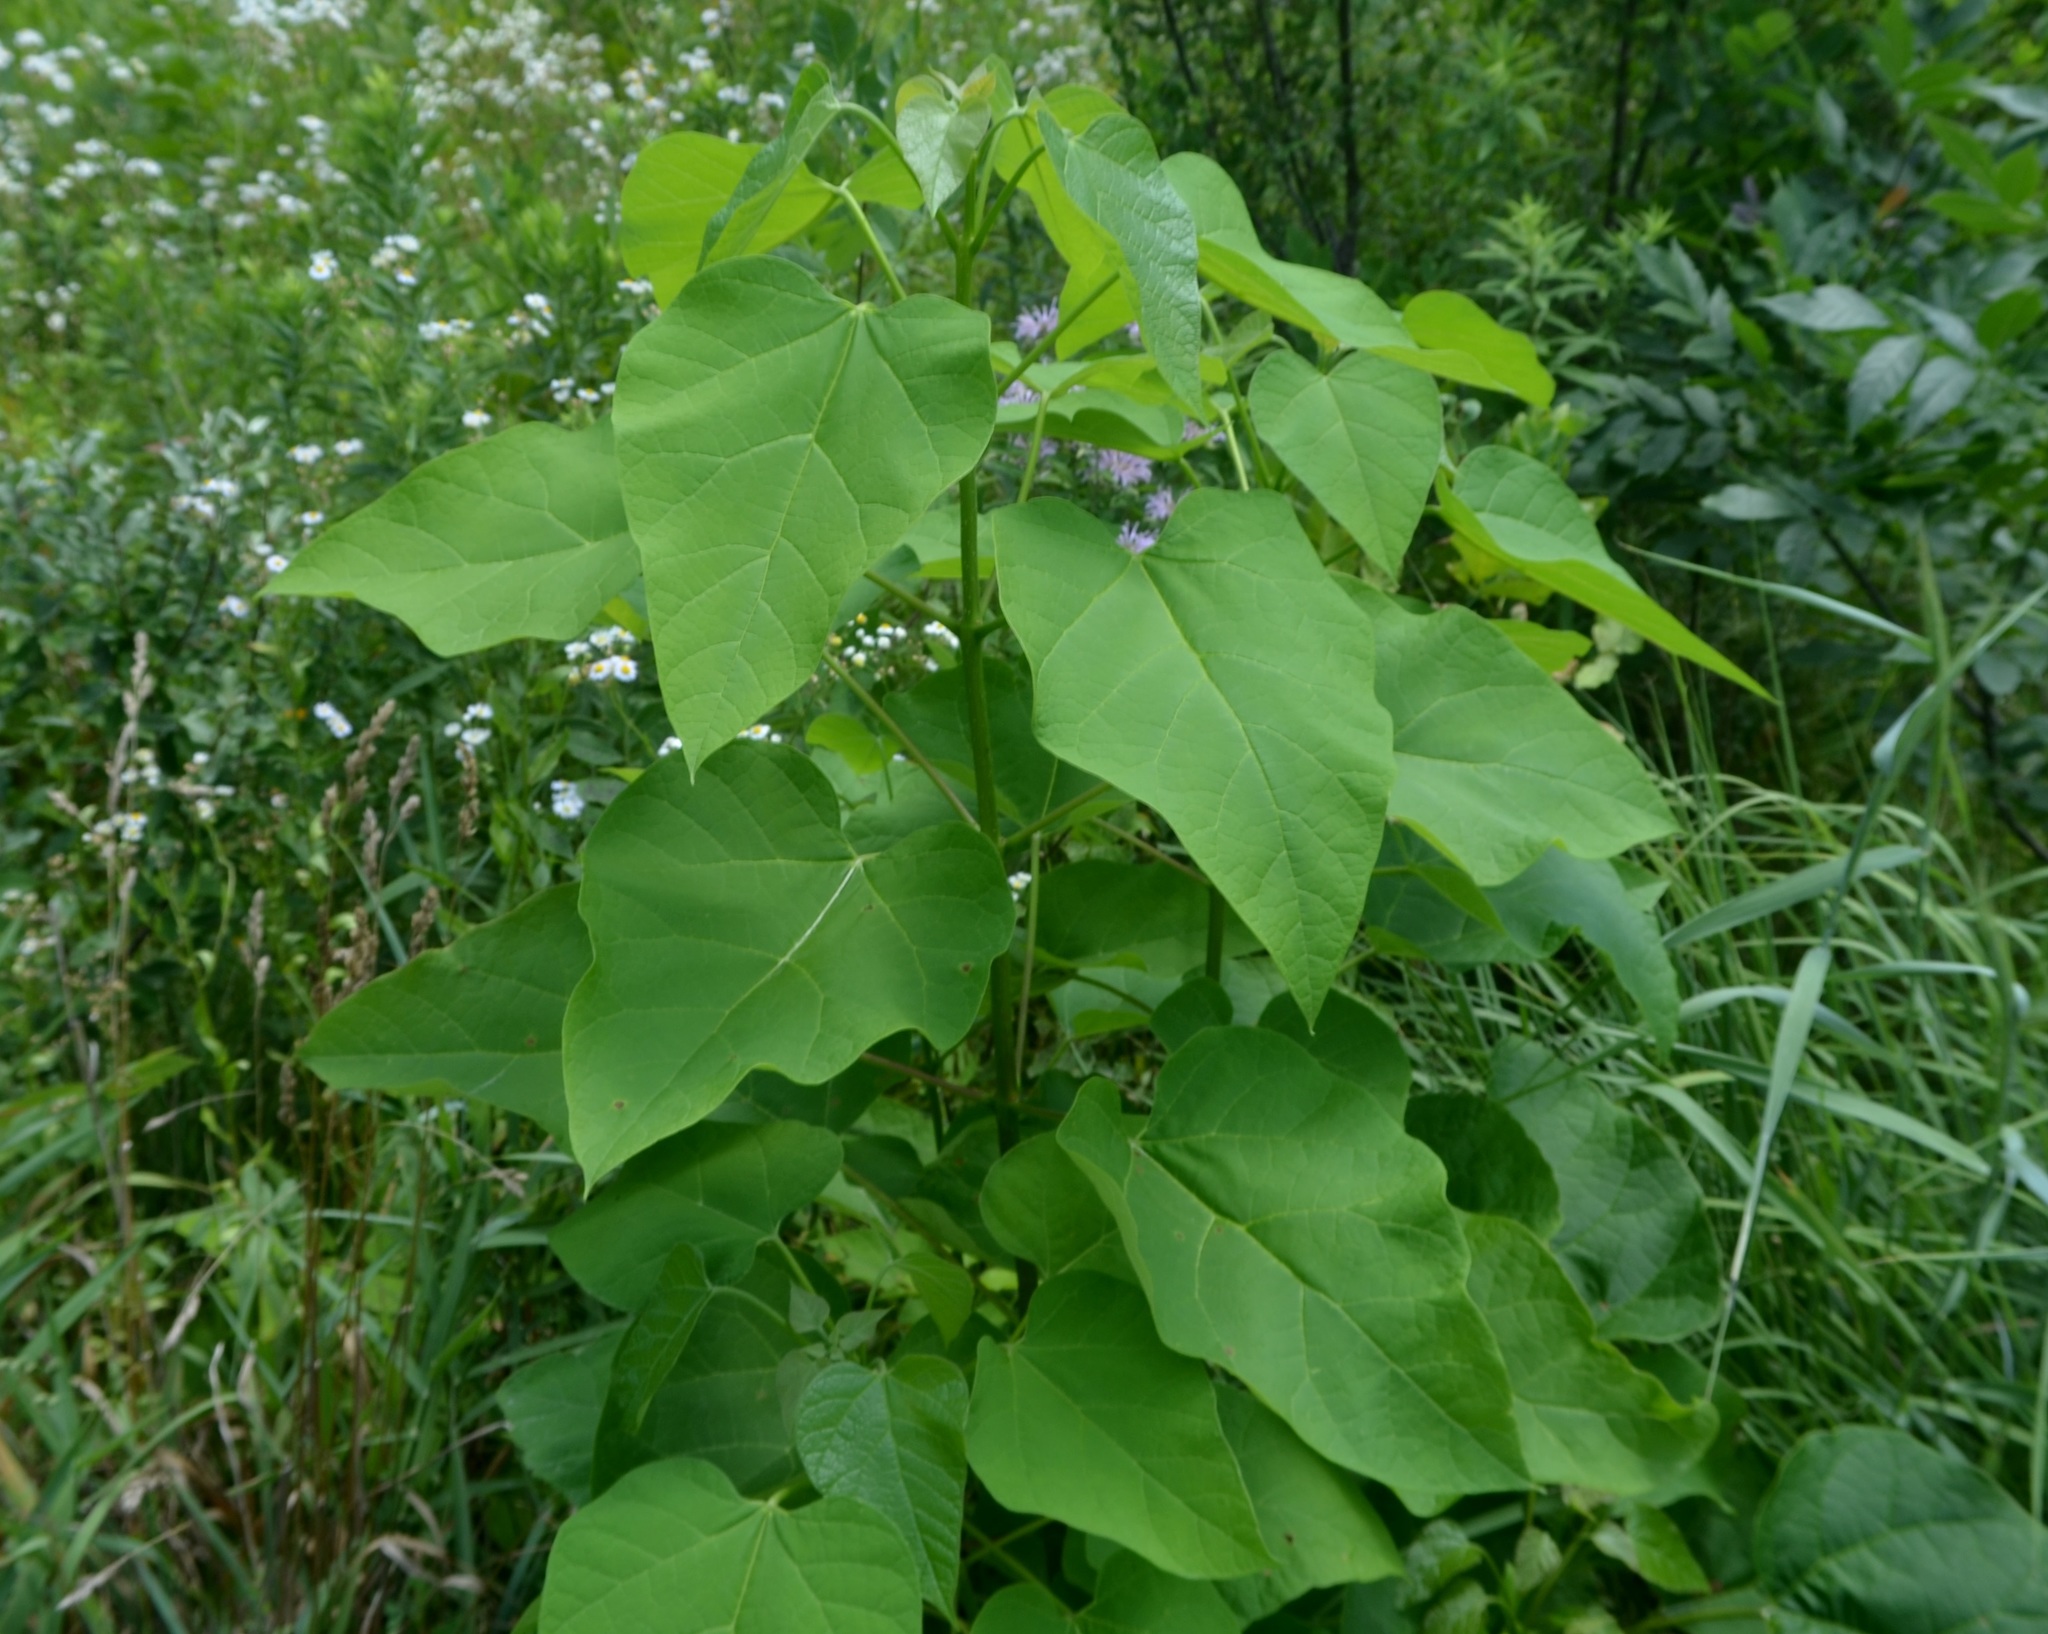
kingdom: Plantae
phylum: Tracheophyta
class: Magnoliopsida
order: Lamiales
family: Bignoniaceae
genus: Catalpa
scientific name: Catalpa speciosa
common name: Northern catalpa
